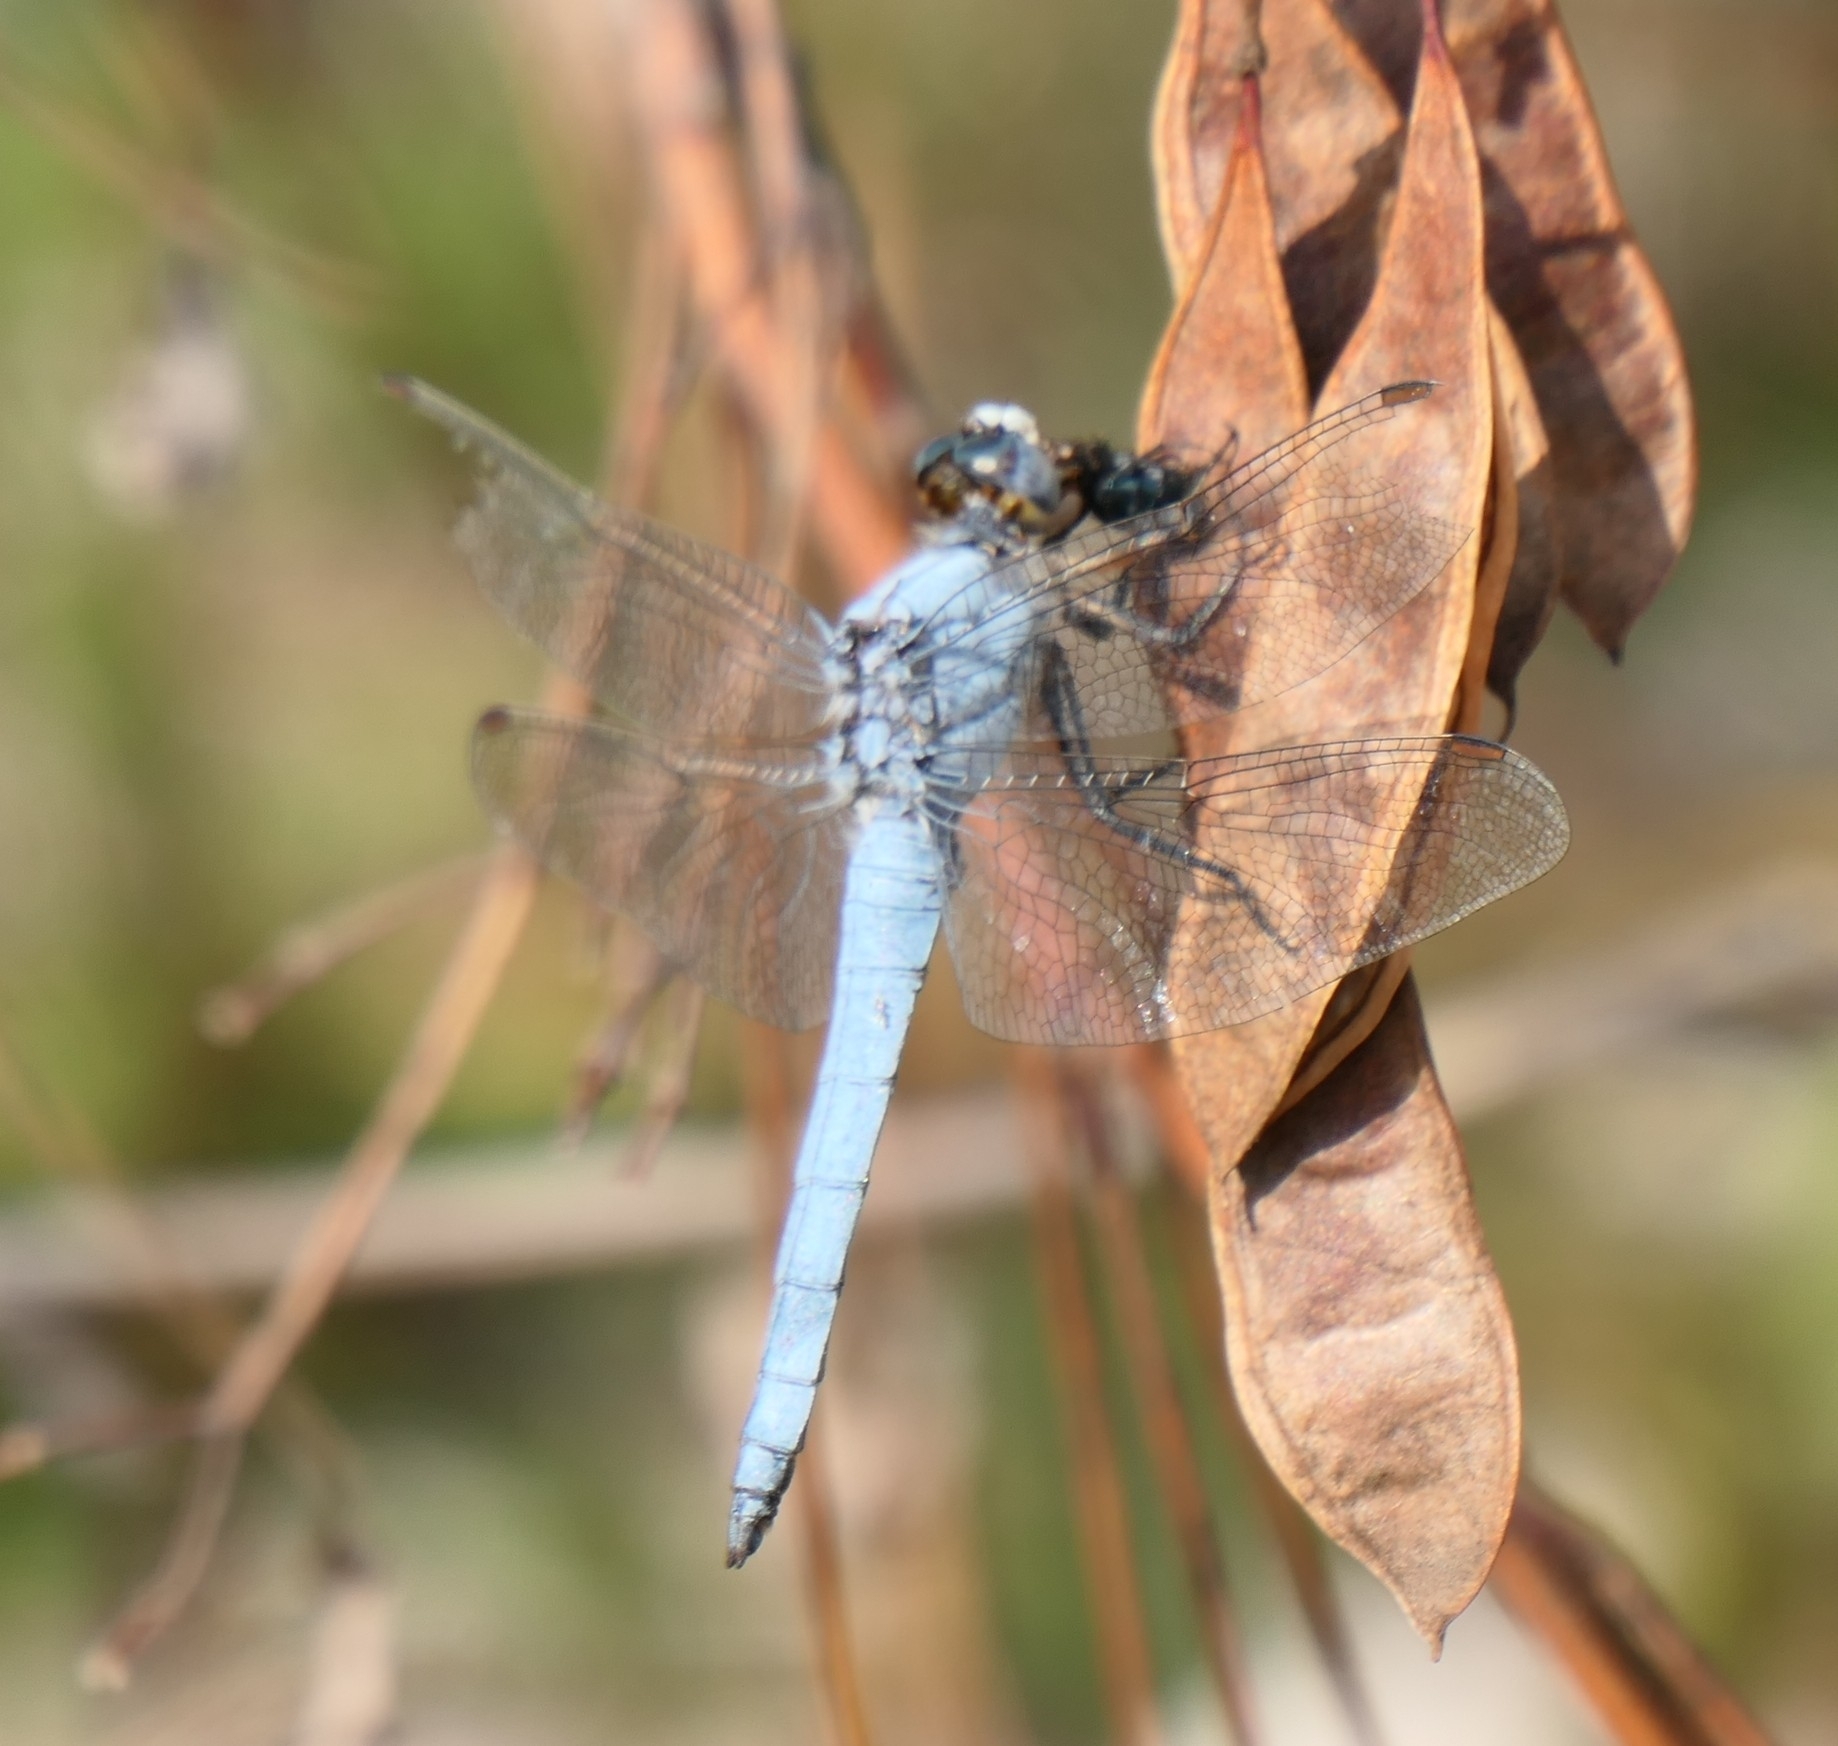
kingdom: Animalia
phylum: Arthropoda
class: Insecta
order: Odonata
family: Libellulidae
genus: Orthetrum
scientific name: Orthetrum brunneum
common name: Southern skimmer
